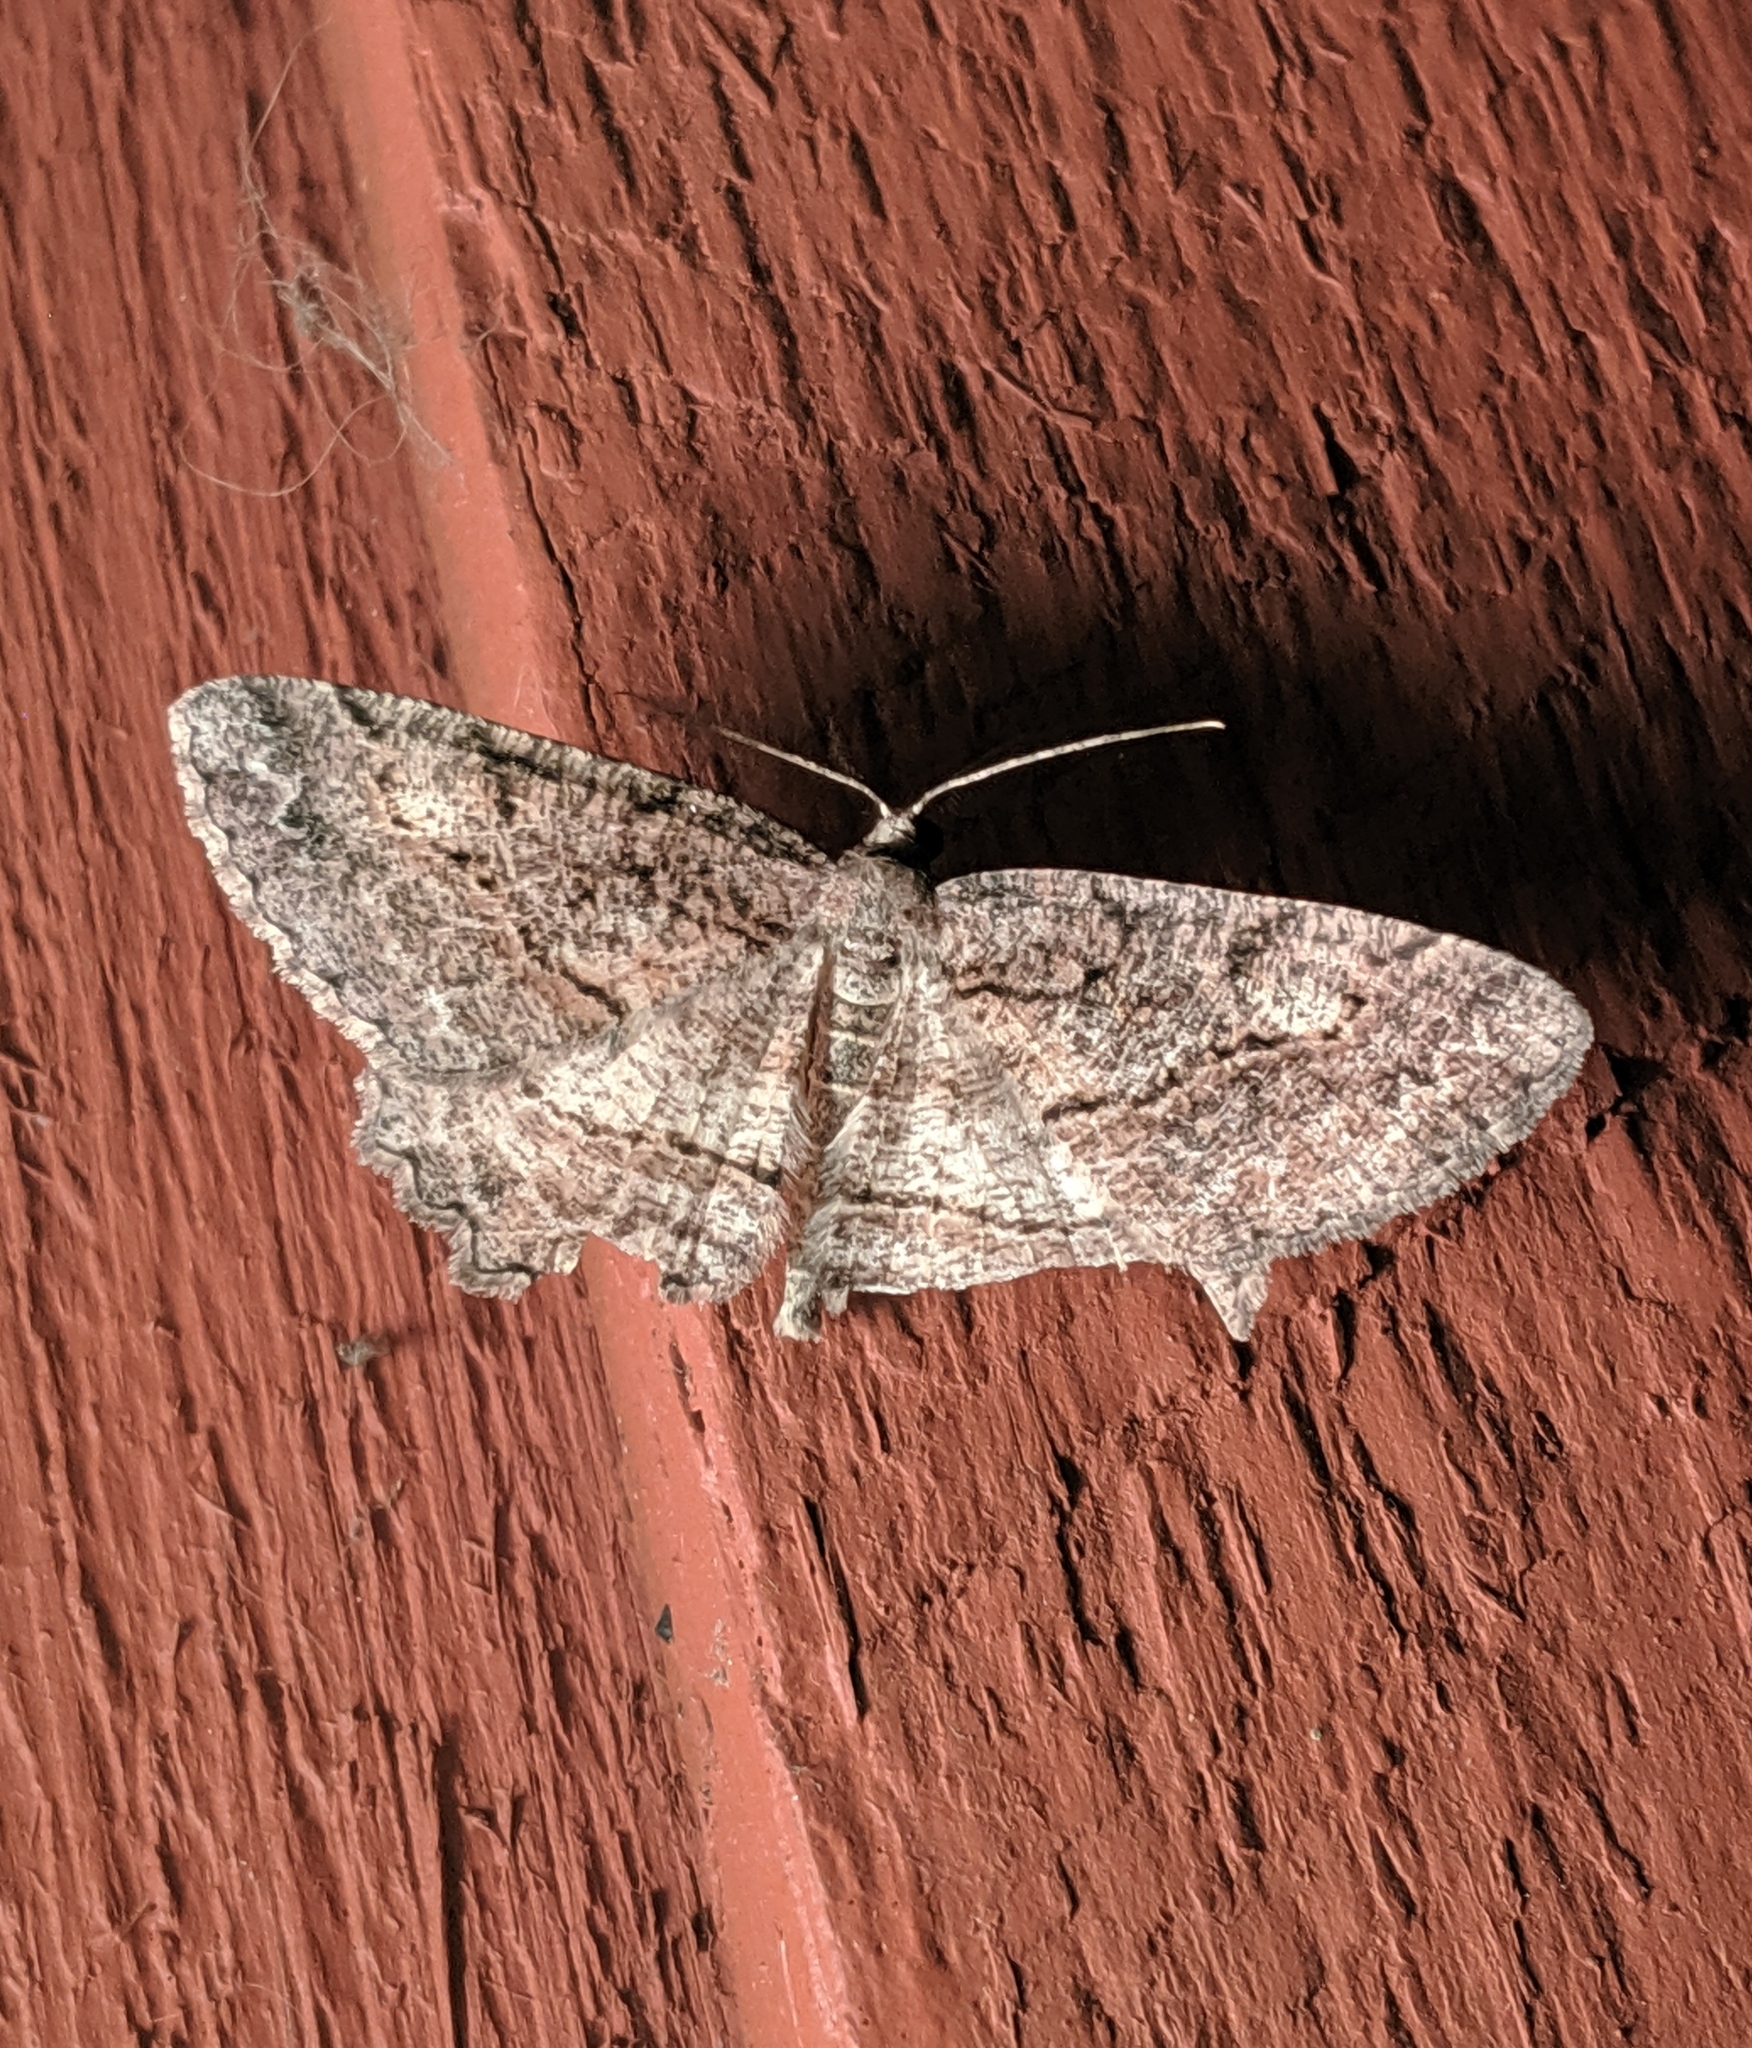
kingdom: Animalia
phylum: Arthropoda
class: Insecta
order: Lepidoptera
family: Geometridae
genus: Neoalcis
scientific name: Neoalcis californiaria
